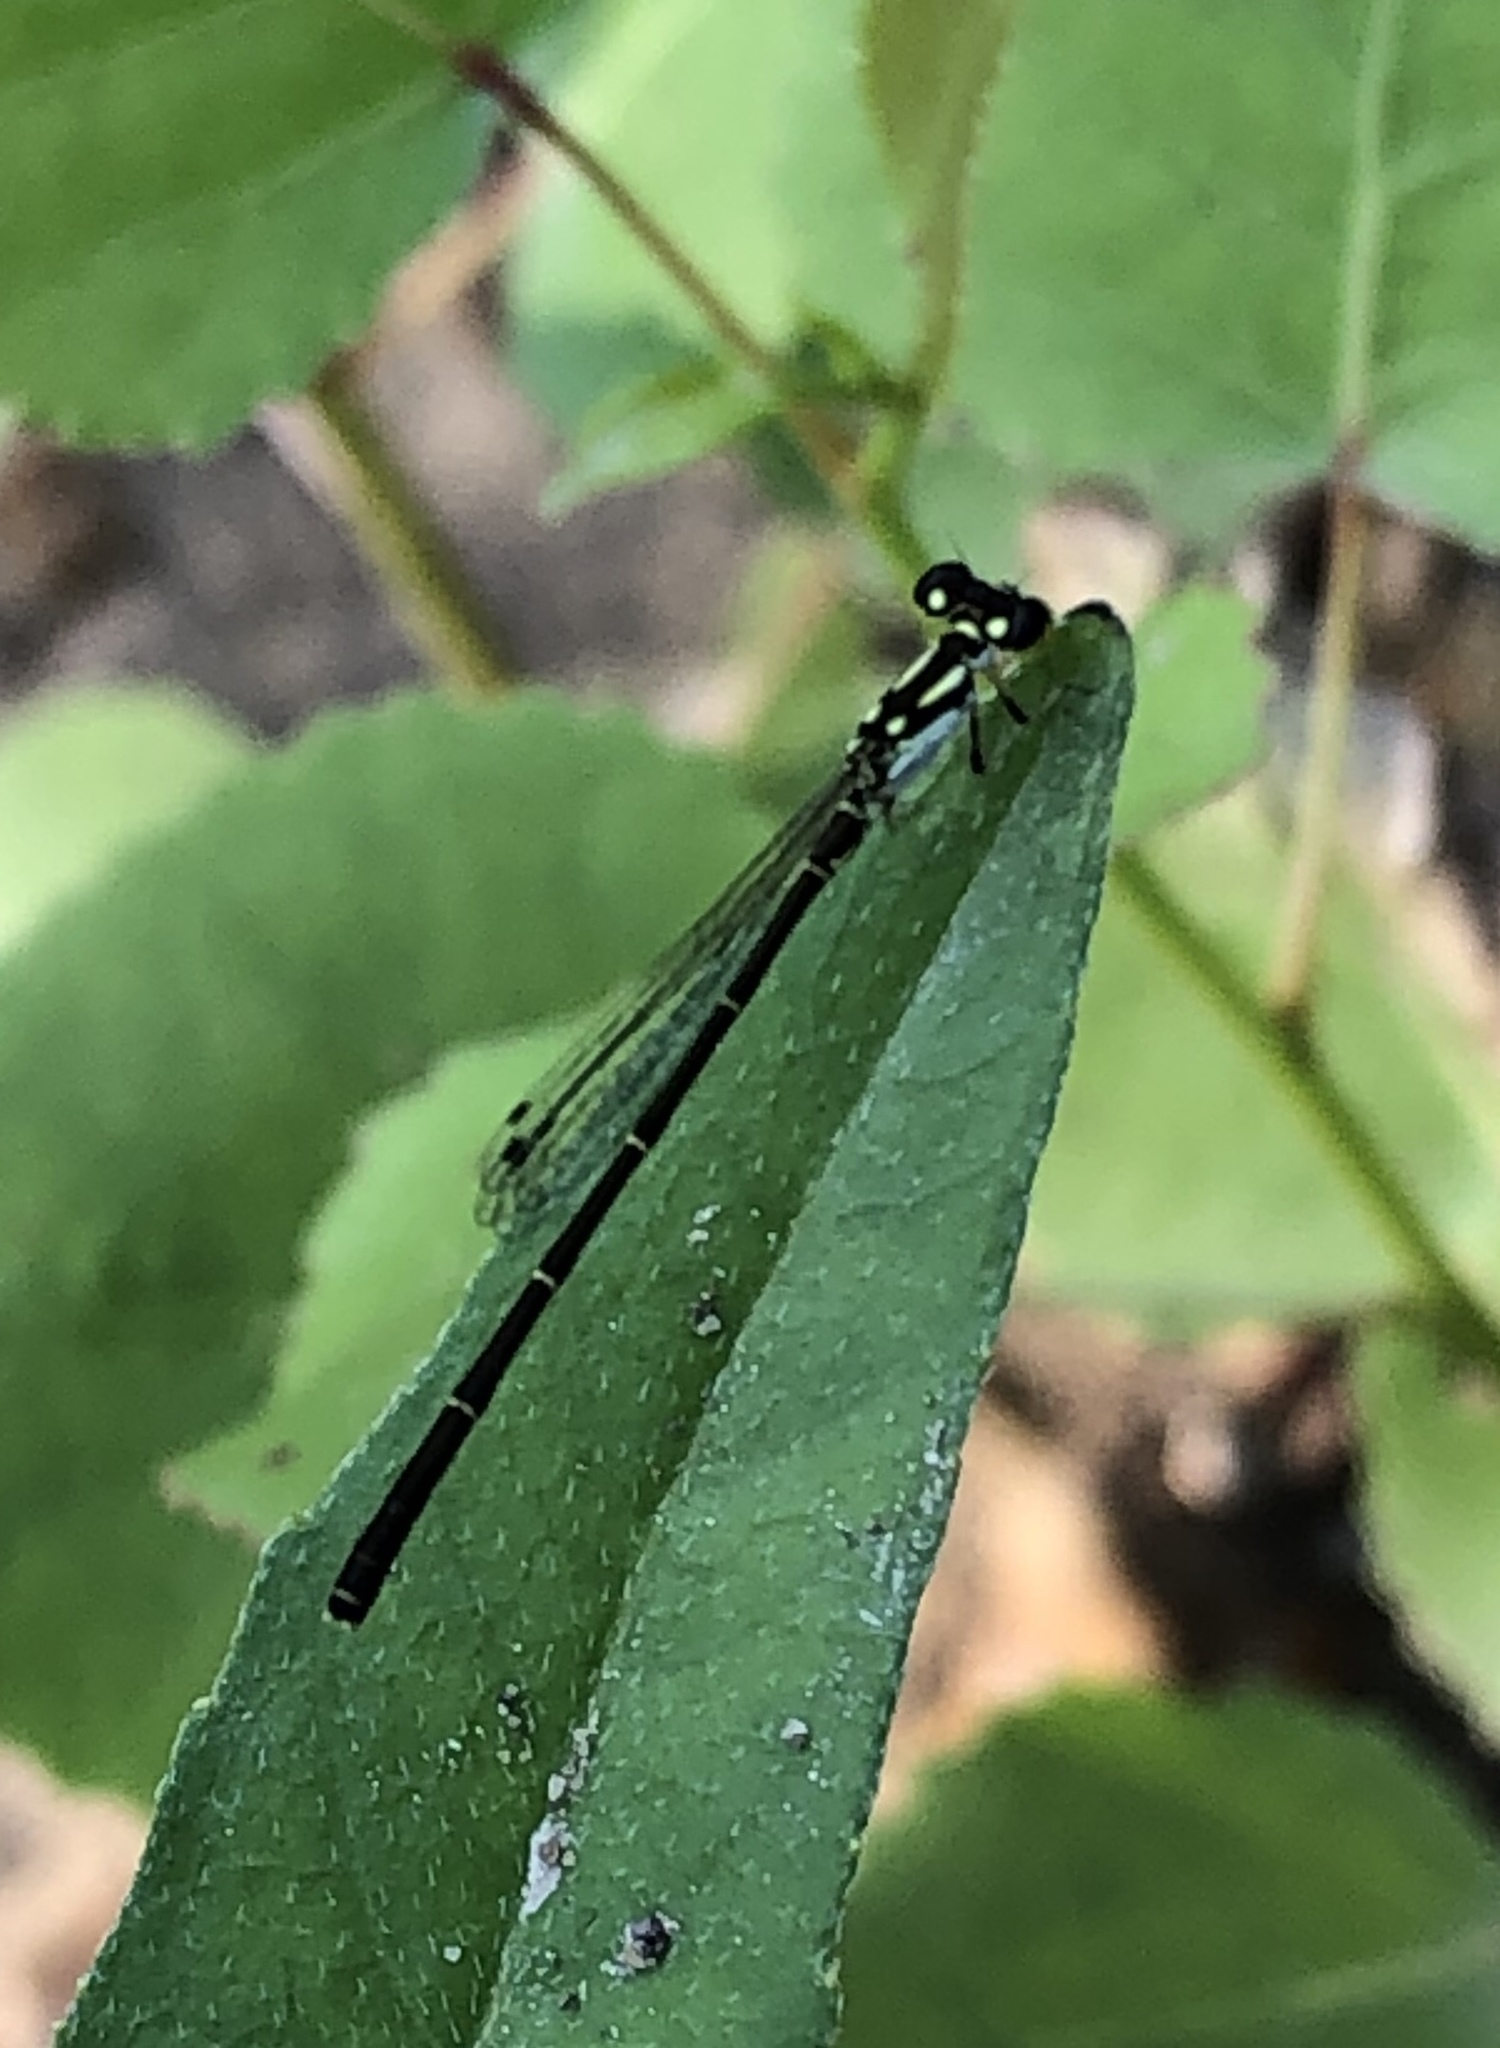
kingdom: Animalia
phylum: Arthropoda
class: Insecta
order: Odonata
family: Coenagrionidae
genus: Ischnura
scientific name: Ischnura posita
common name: Fragile forktail
